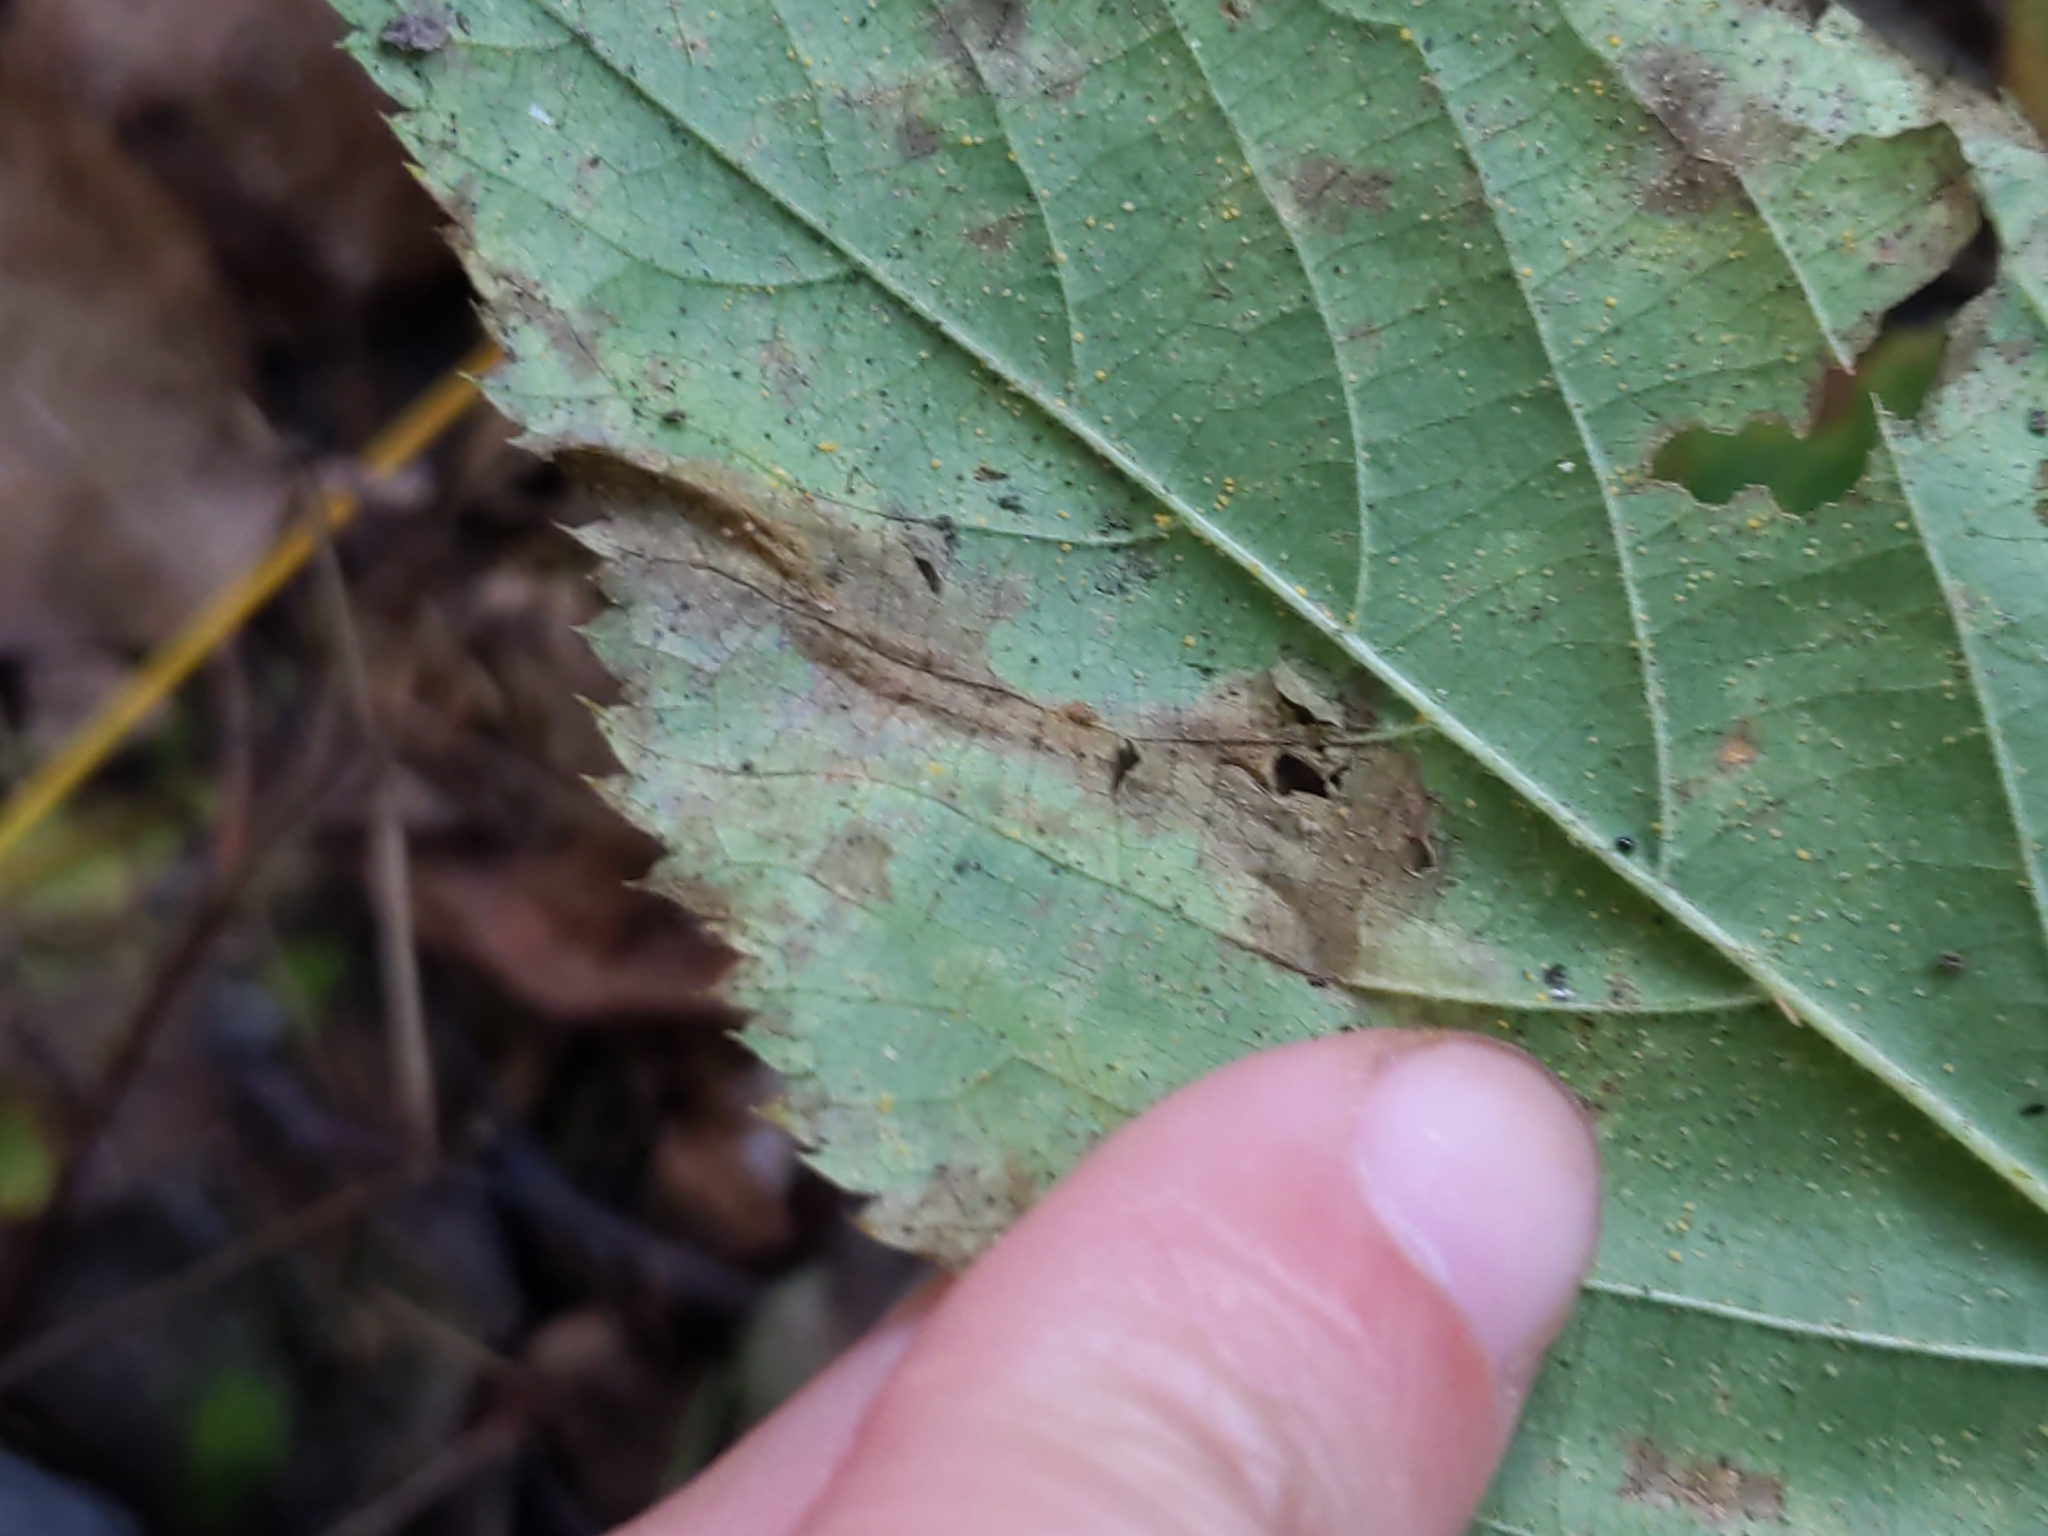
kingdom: Animalia
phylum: Arthropoda
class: Insecta
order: Lepidoptera
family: Tischeriidae
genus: Coptotriche
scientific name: Coptotriche aenea
